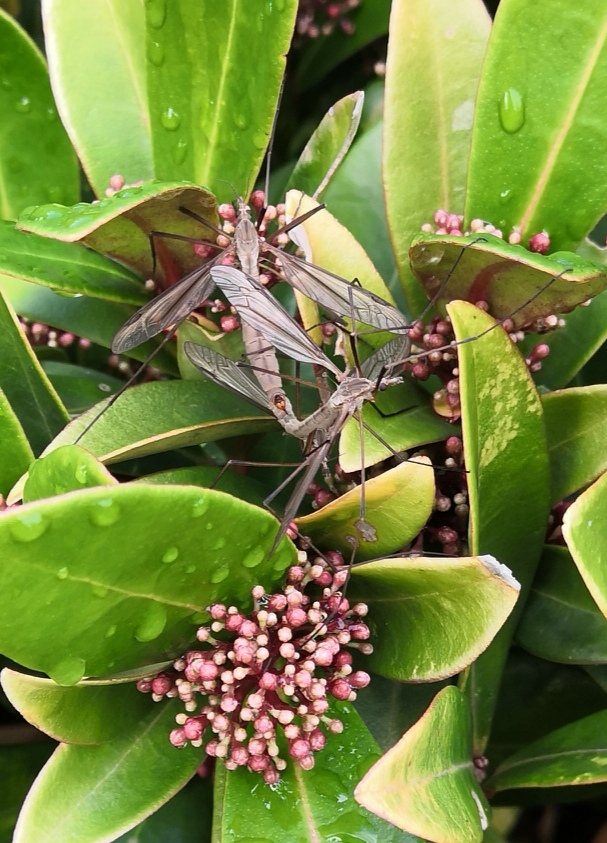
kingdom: Animalia
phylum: Arthropoda
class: Insecta
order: Diptera
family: Tipulidae
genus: Tipula
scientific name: Tipula paludosa
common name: European cranefly
